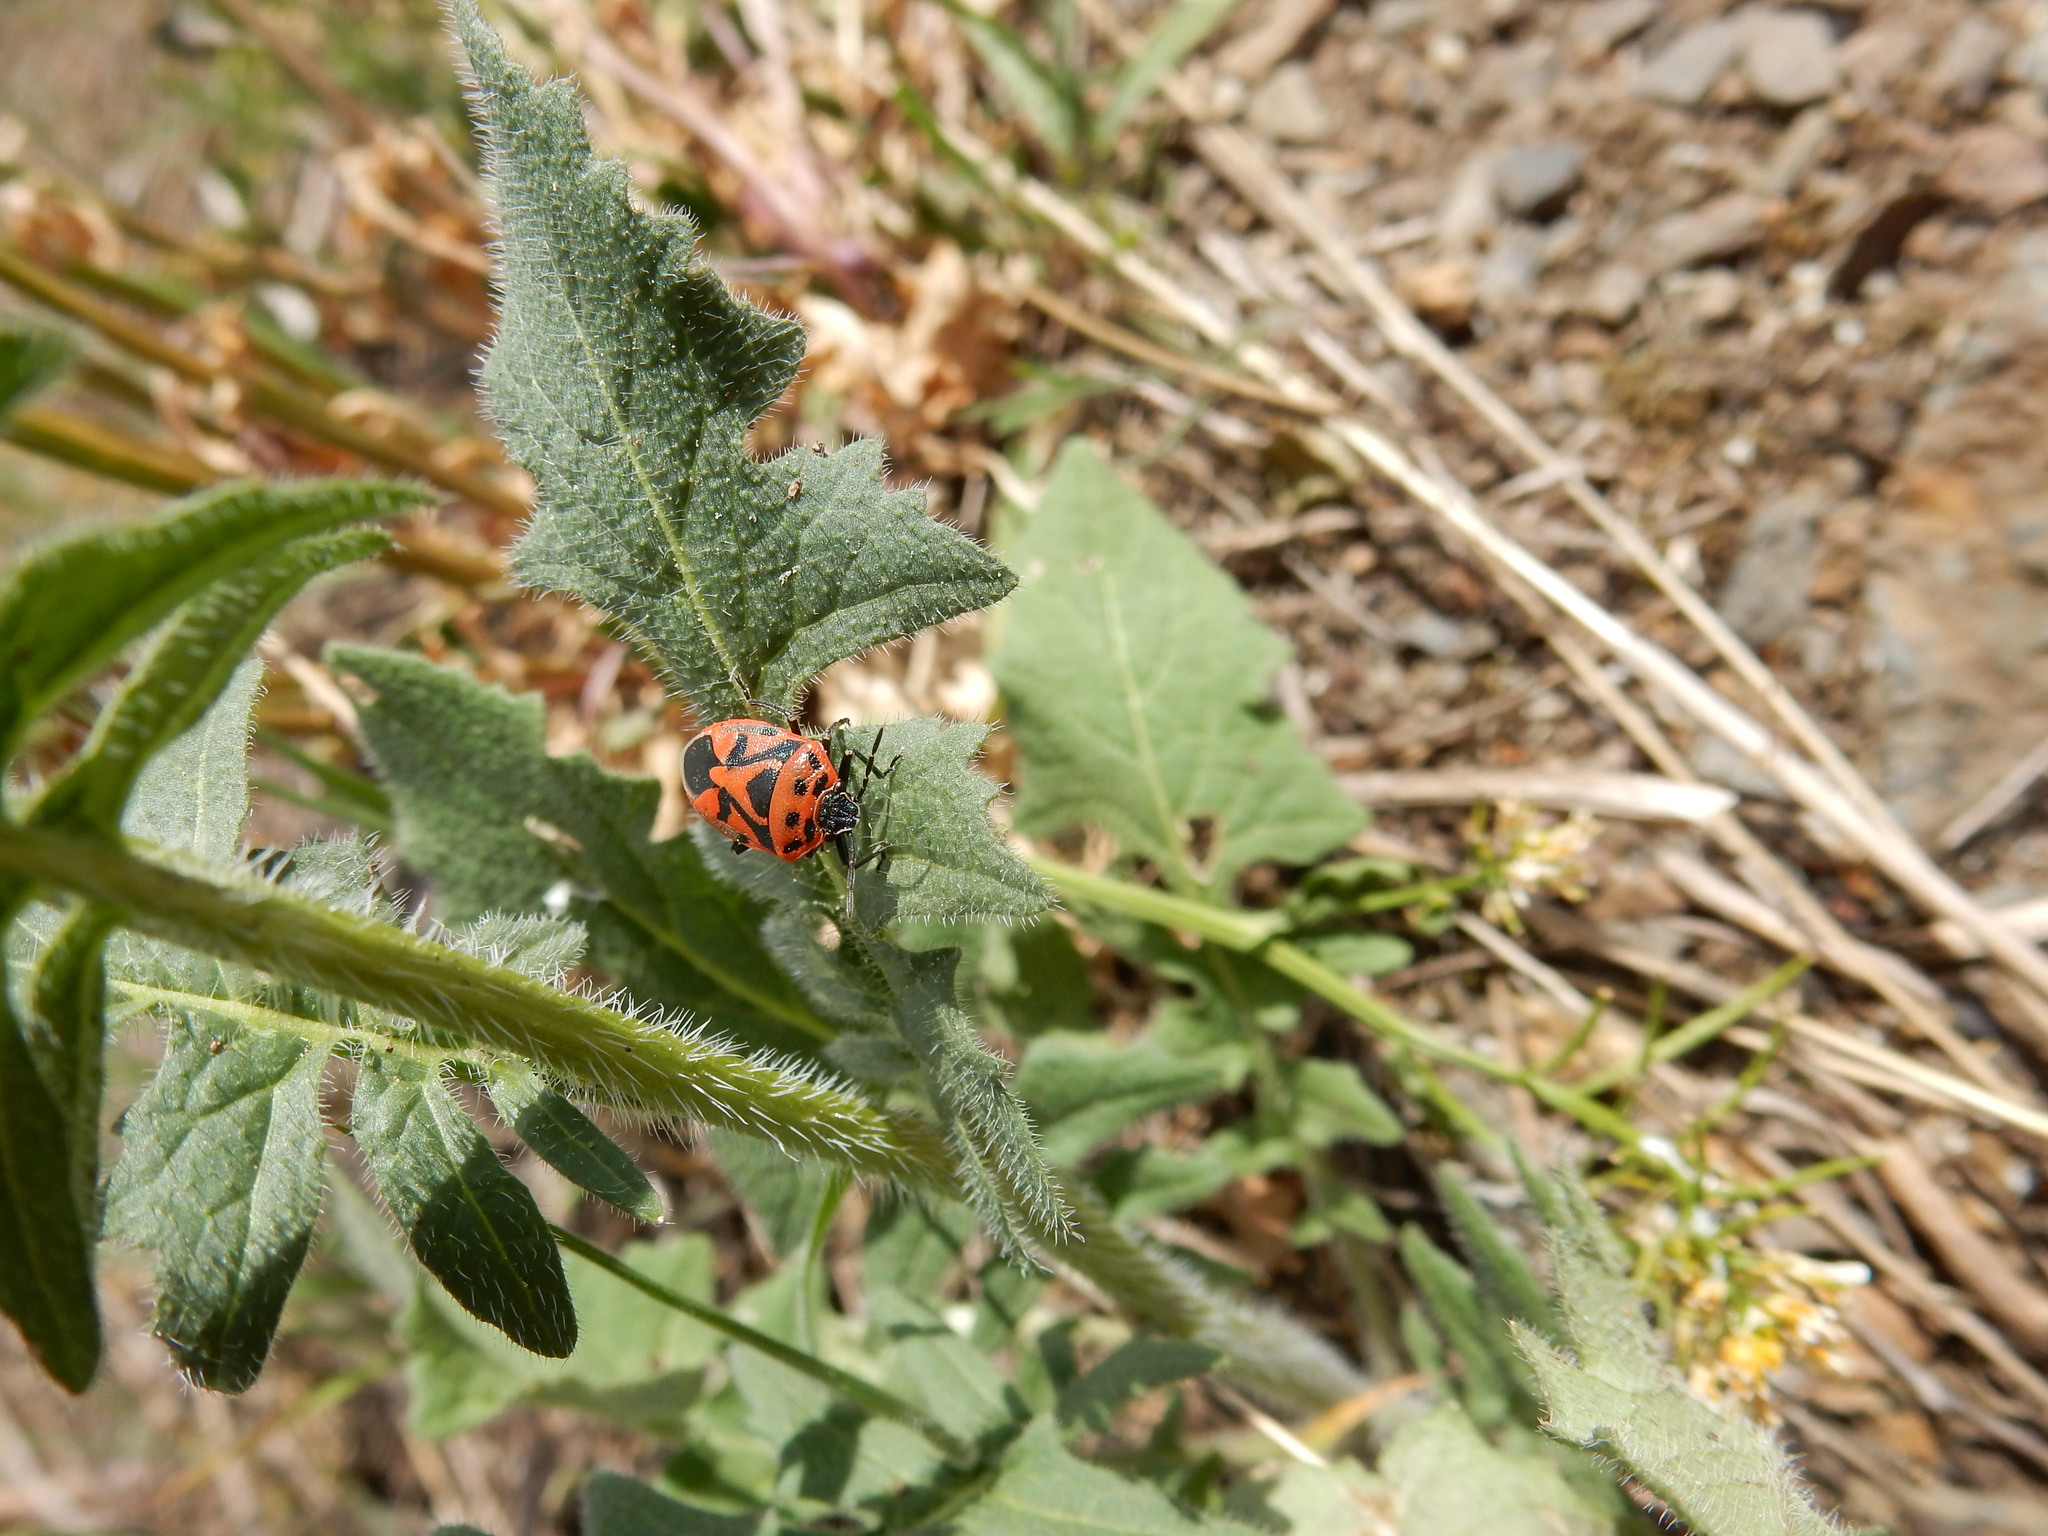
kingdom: Animalia
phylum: Arthropoda
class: Insecta
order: Hemiptera
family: Pentatomidae
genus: Eurydema
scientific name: Eurydema ornata
